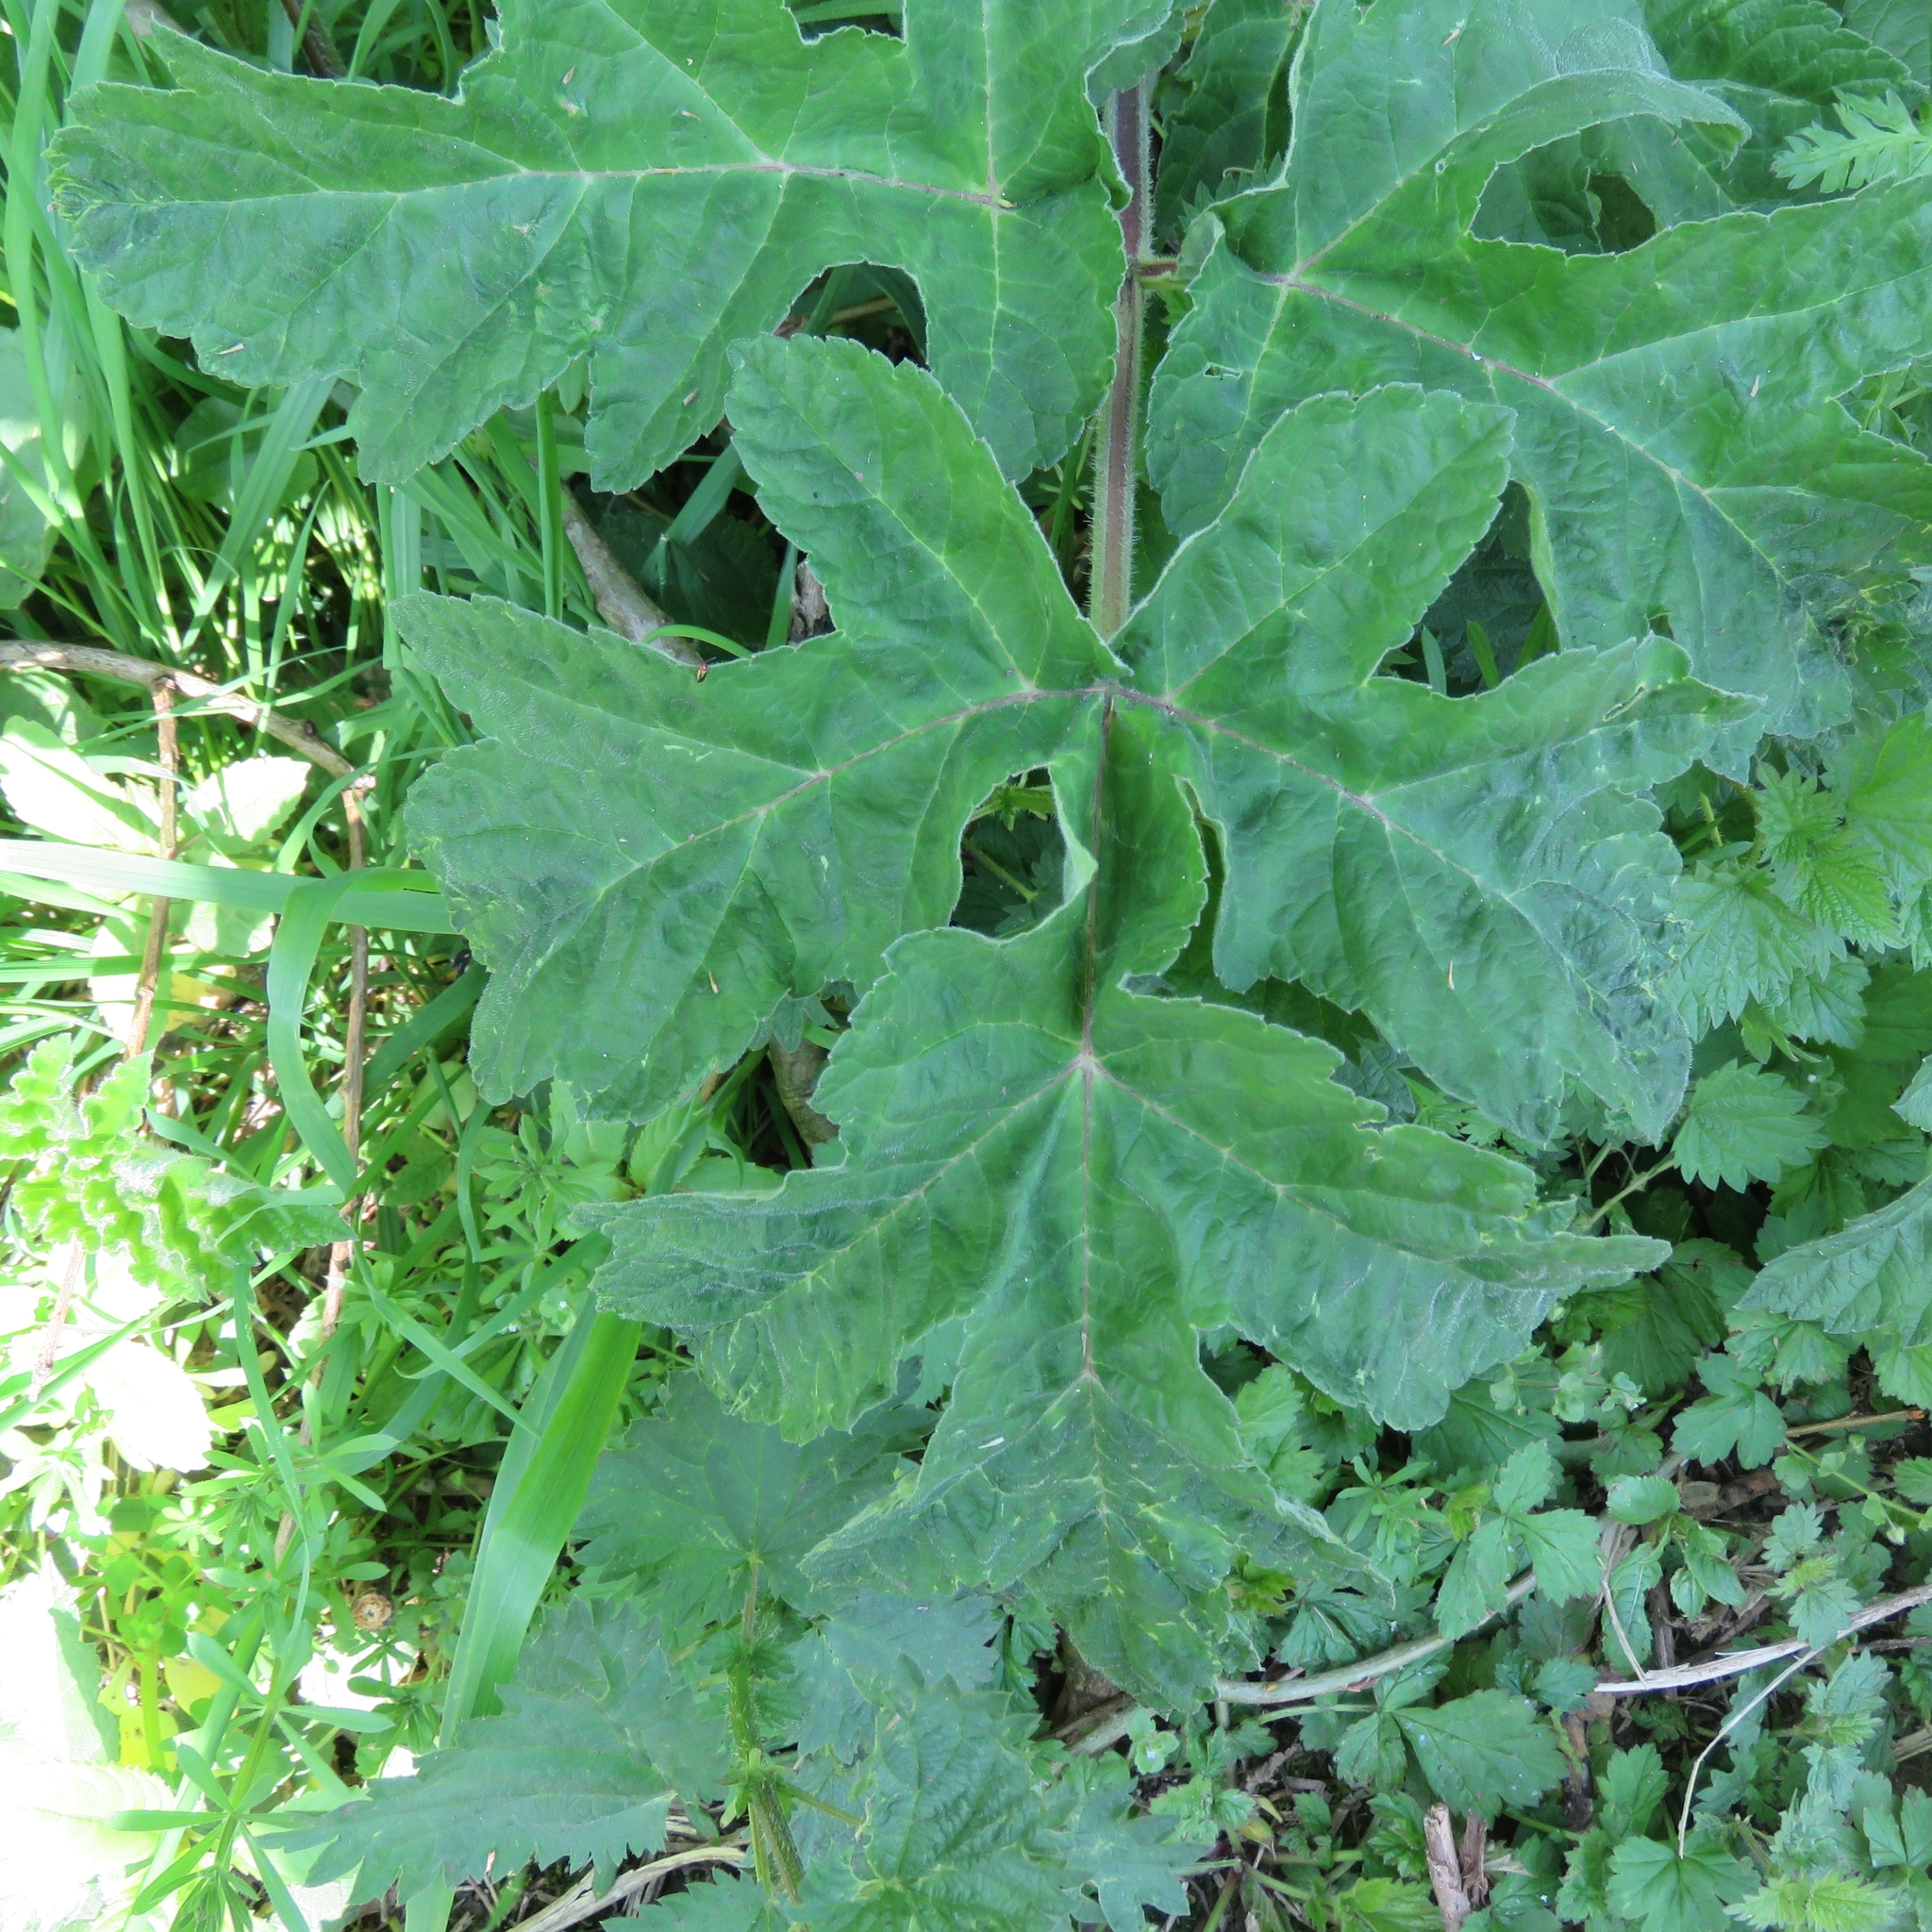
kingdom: Plantae
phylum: Tracheophyta
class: Magnoliopsida
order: Apiales
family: Apiaceae
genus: Heracleum
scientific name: Heracleum sphondylium
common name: Hogweed
